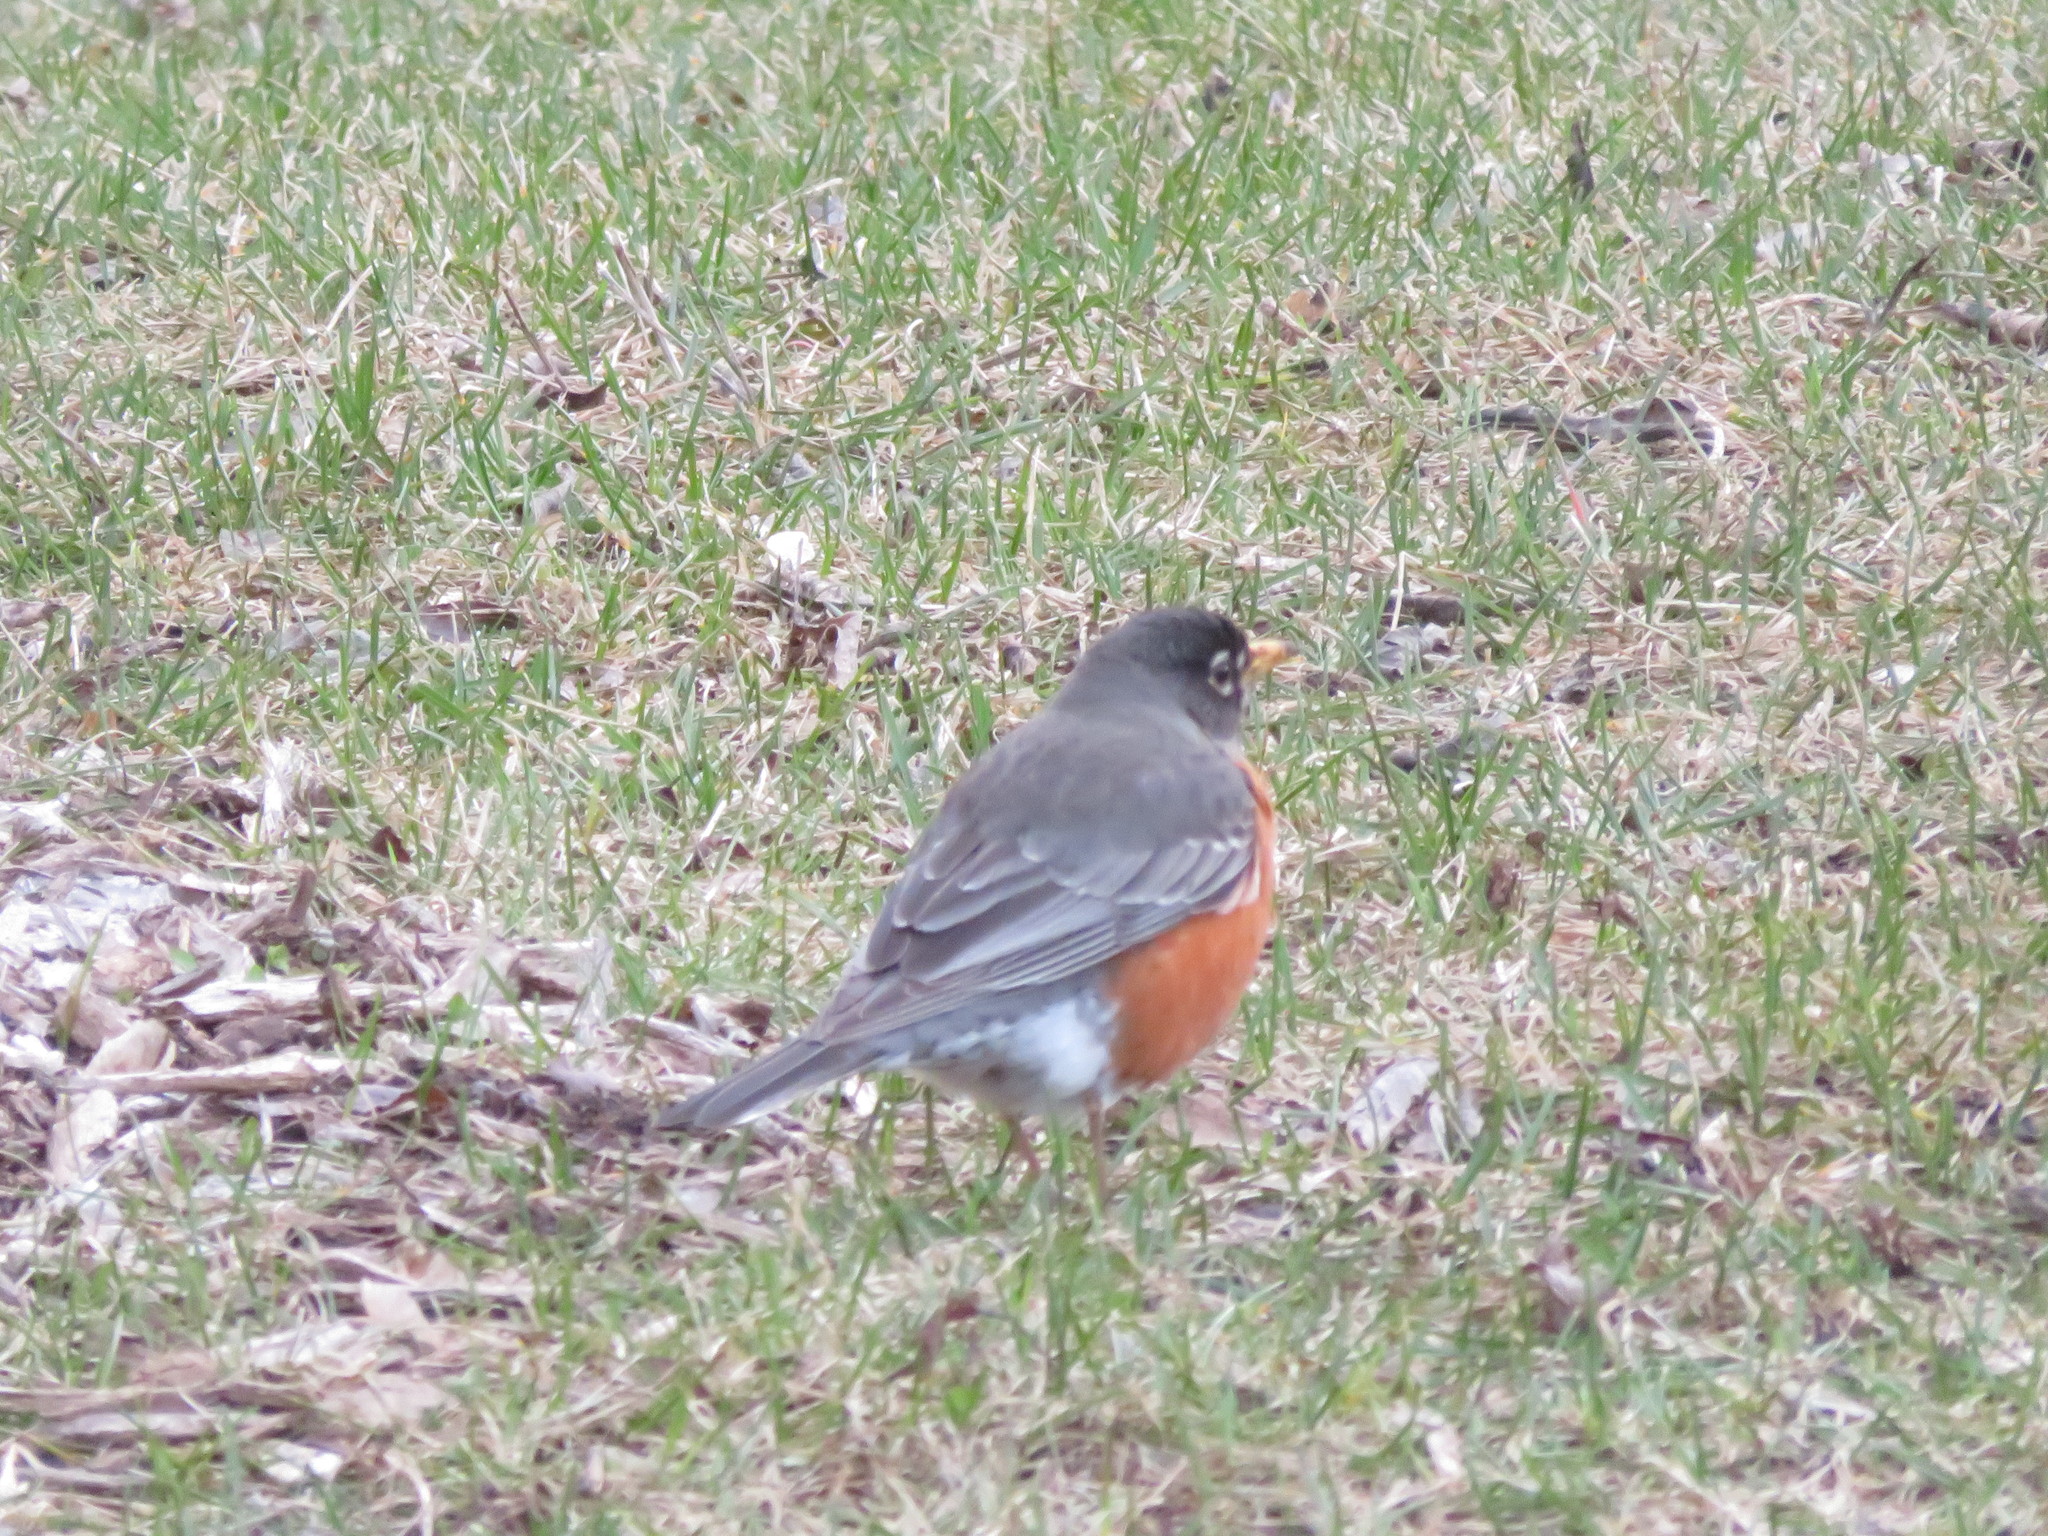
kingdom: Animalia
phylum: Chordata
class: Aves
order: Passeriformes
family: Turdidae
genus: Turdus
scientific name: Turdus migratorius
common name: American robin
